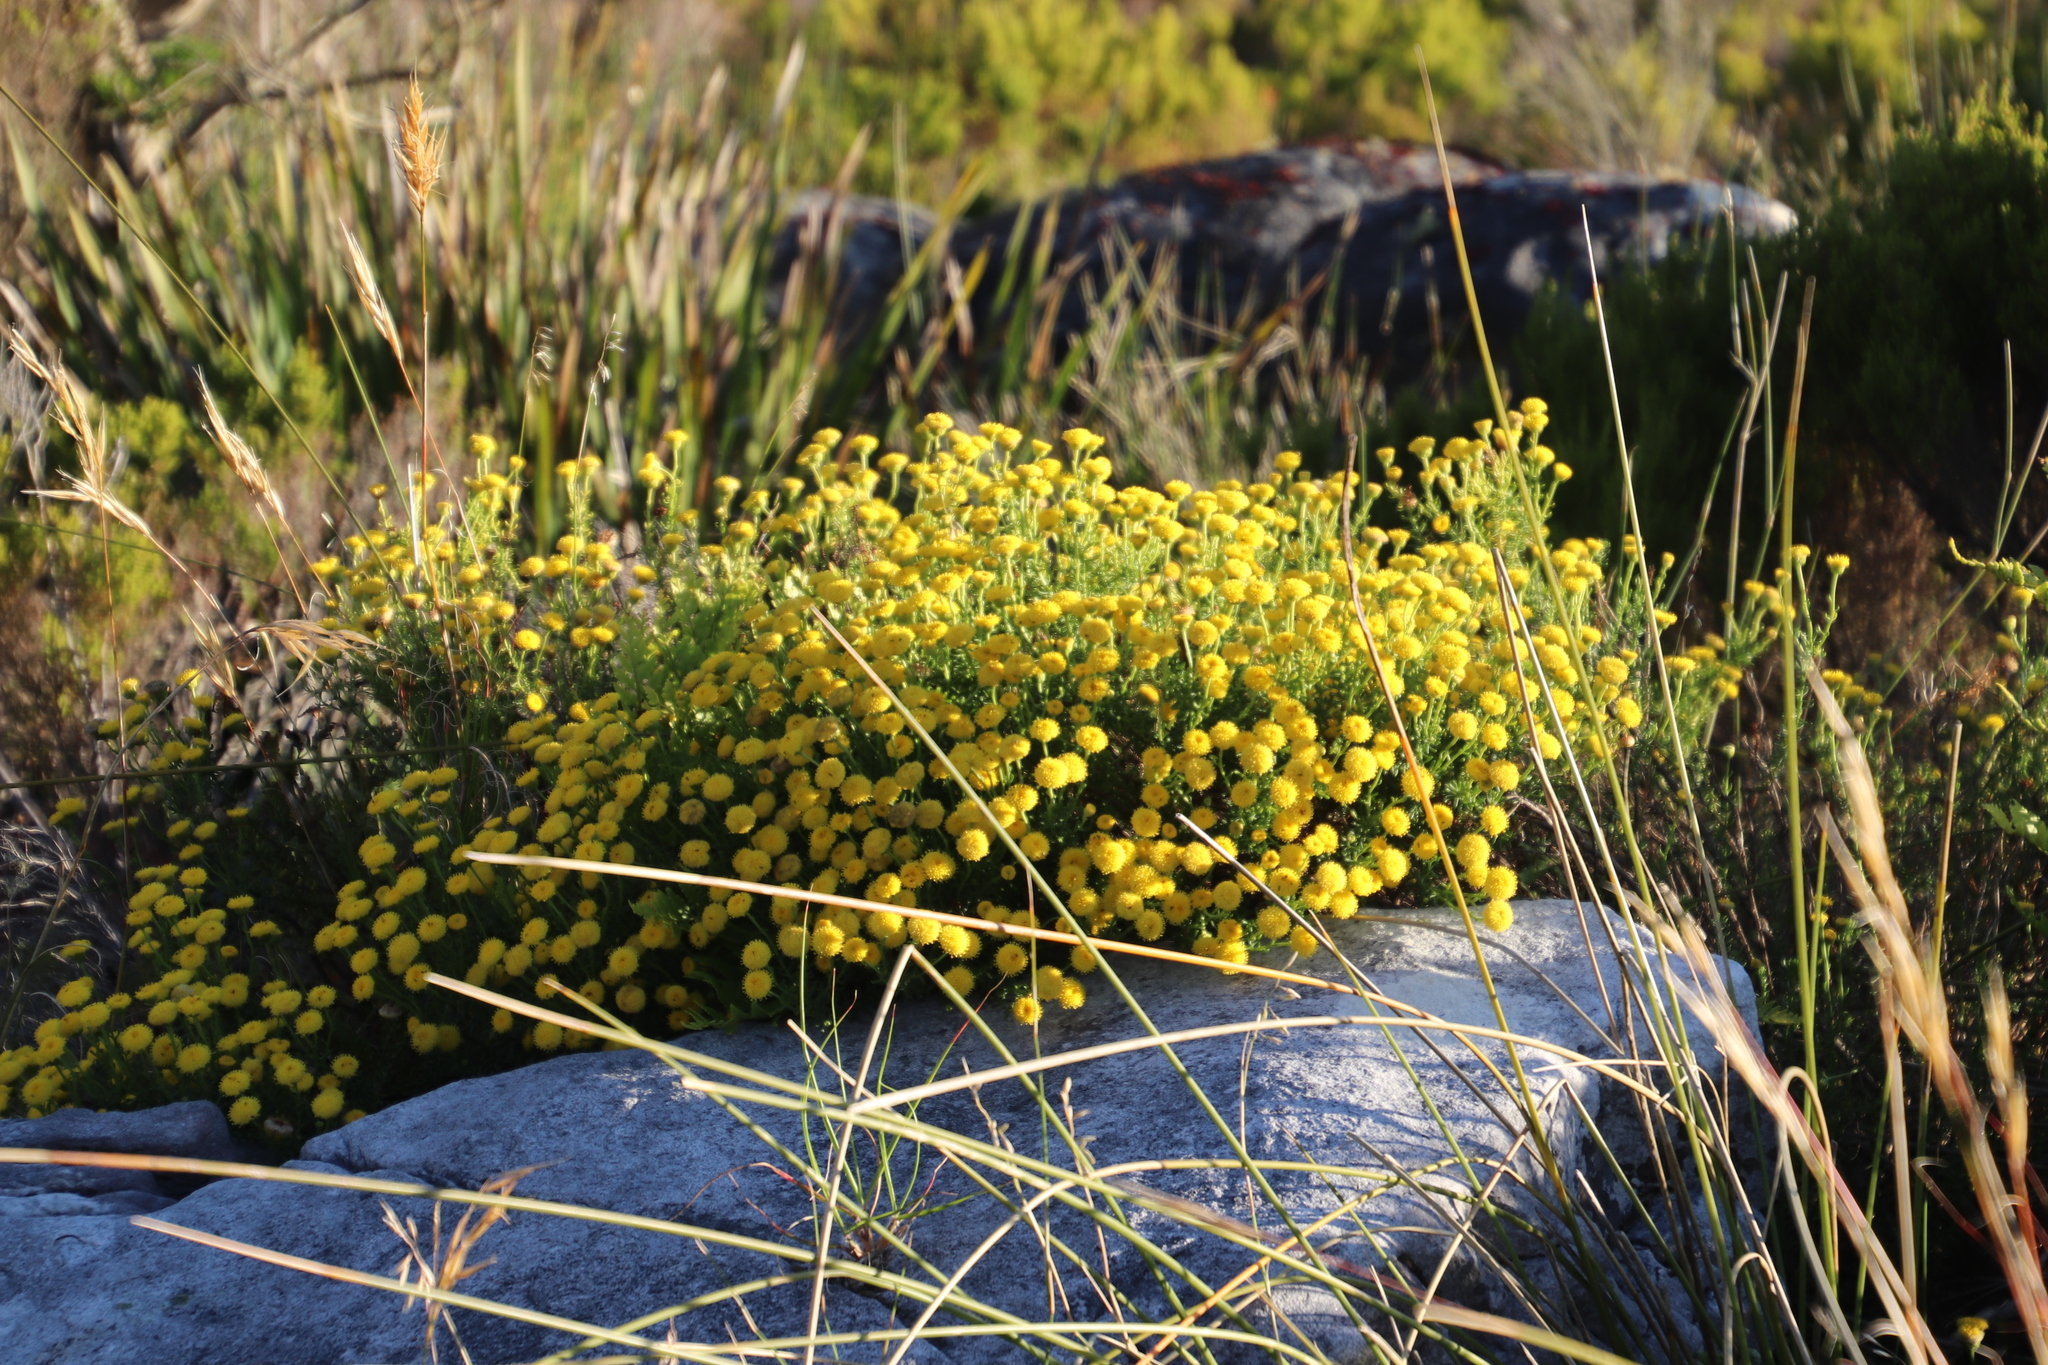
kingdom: Plantae
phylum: Tracheophyta
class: Magnoliopsida
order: Asterales
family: Asteraceae
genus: Chrysocoma
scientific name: Chrysocoma cernua
